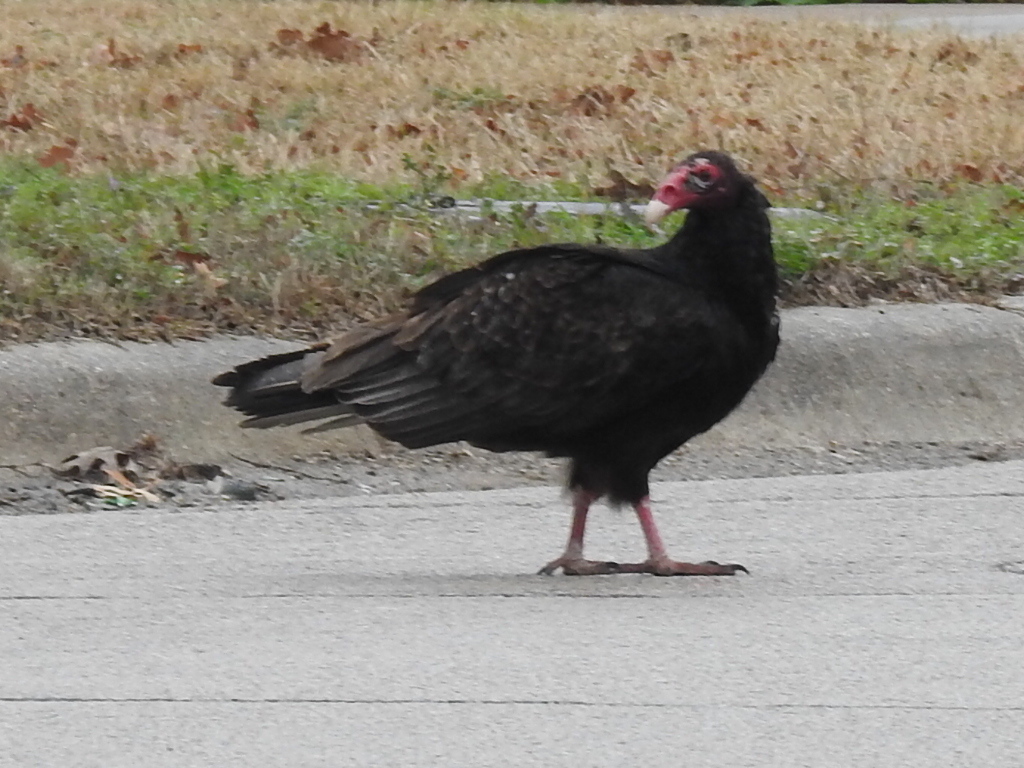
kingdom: Animalia
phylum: Chordata
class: Aves
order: Accipitriformes
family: Cathartidae
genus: Cathartes
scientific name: Cathartes aura
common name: Turkey vulture
